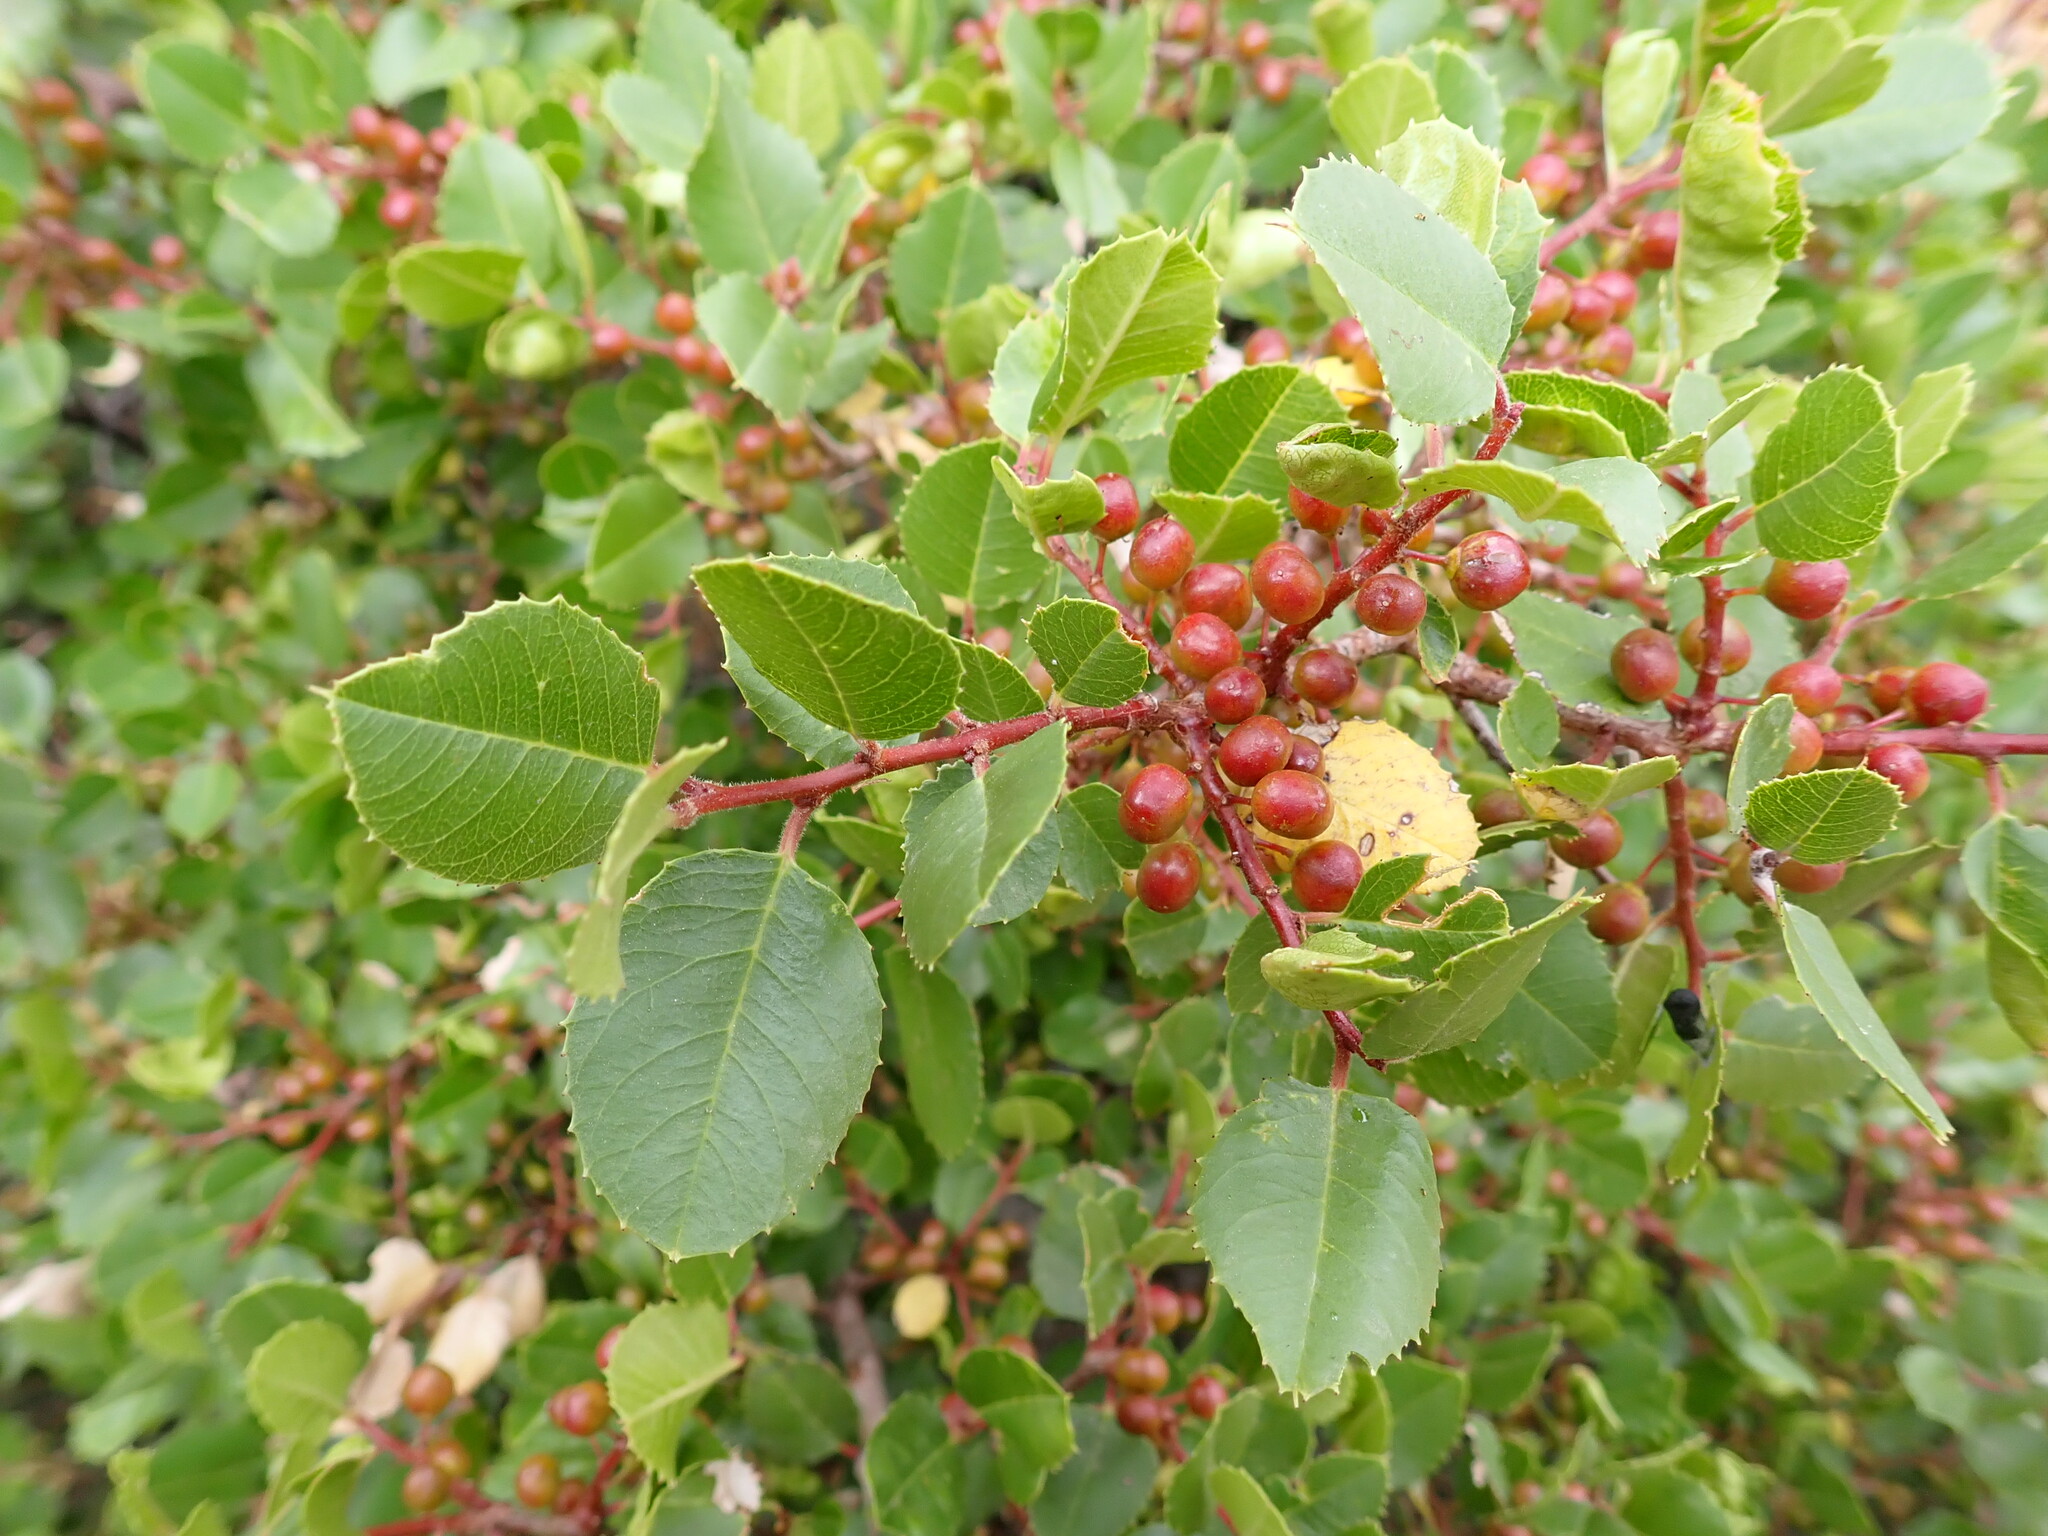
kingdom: Plantae
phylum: Tracheophyta
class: Magnoliopsida
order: Rosales
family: Rhamnaceae
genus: Endotropis
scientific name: Endotropis crocea
